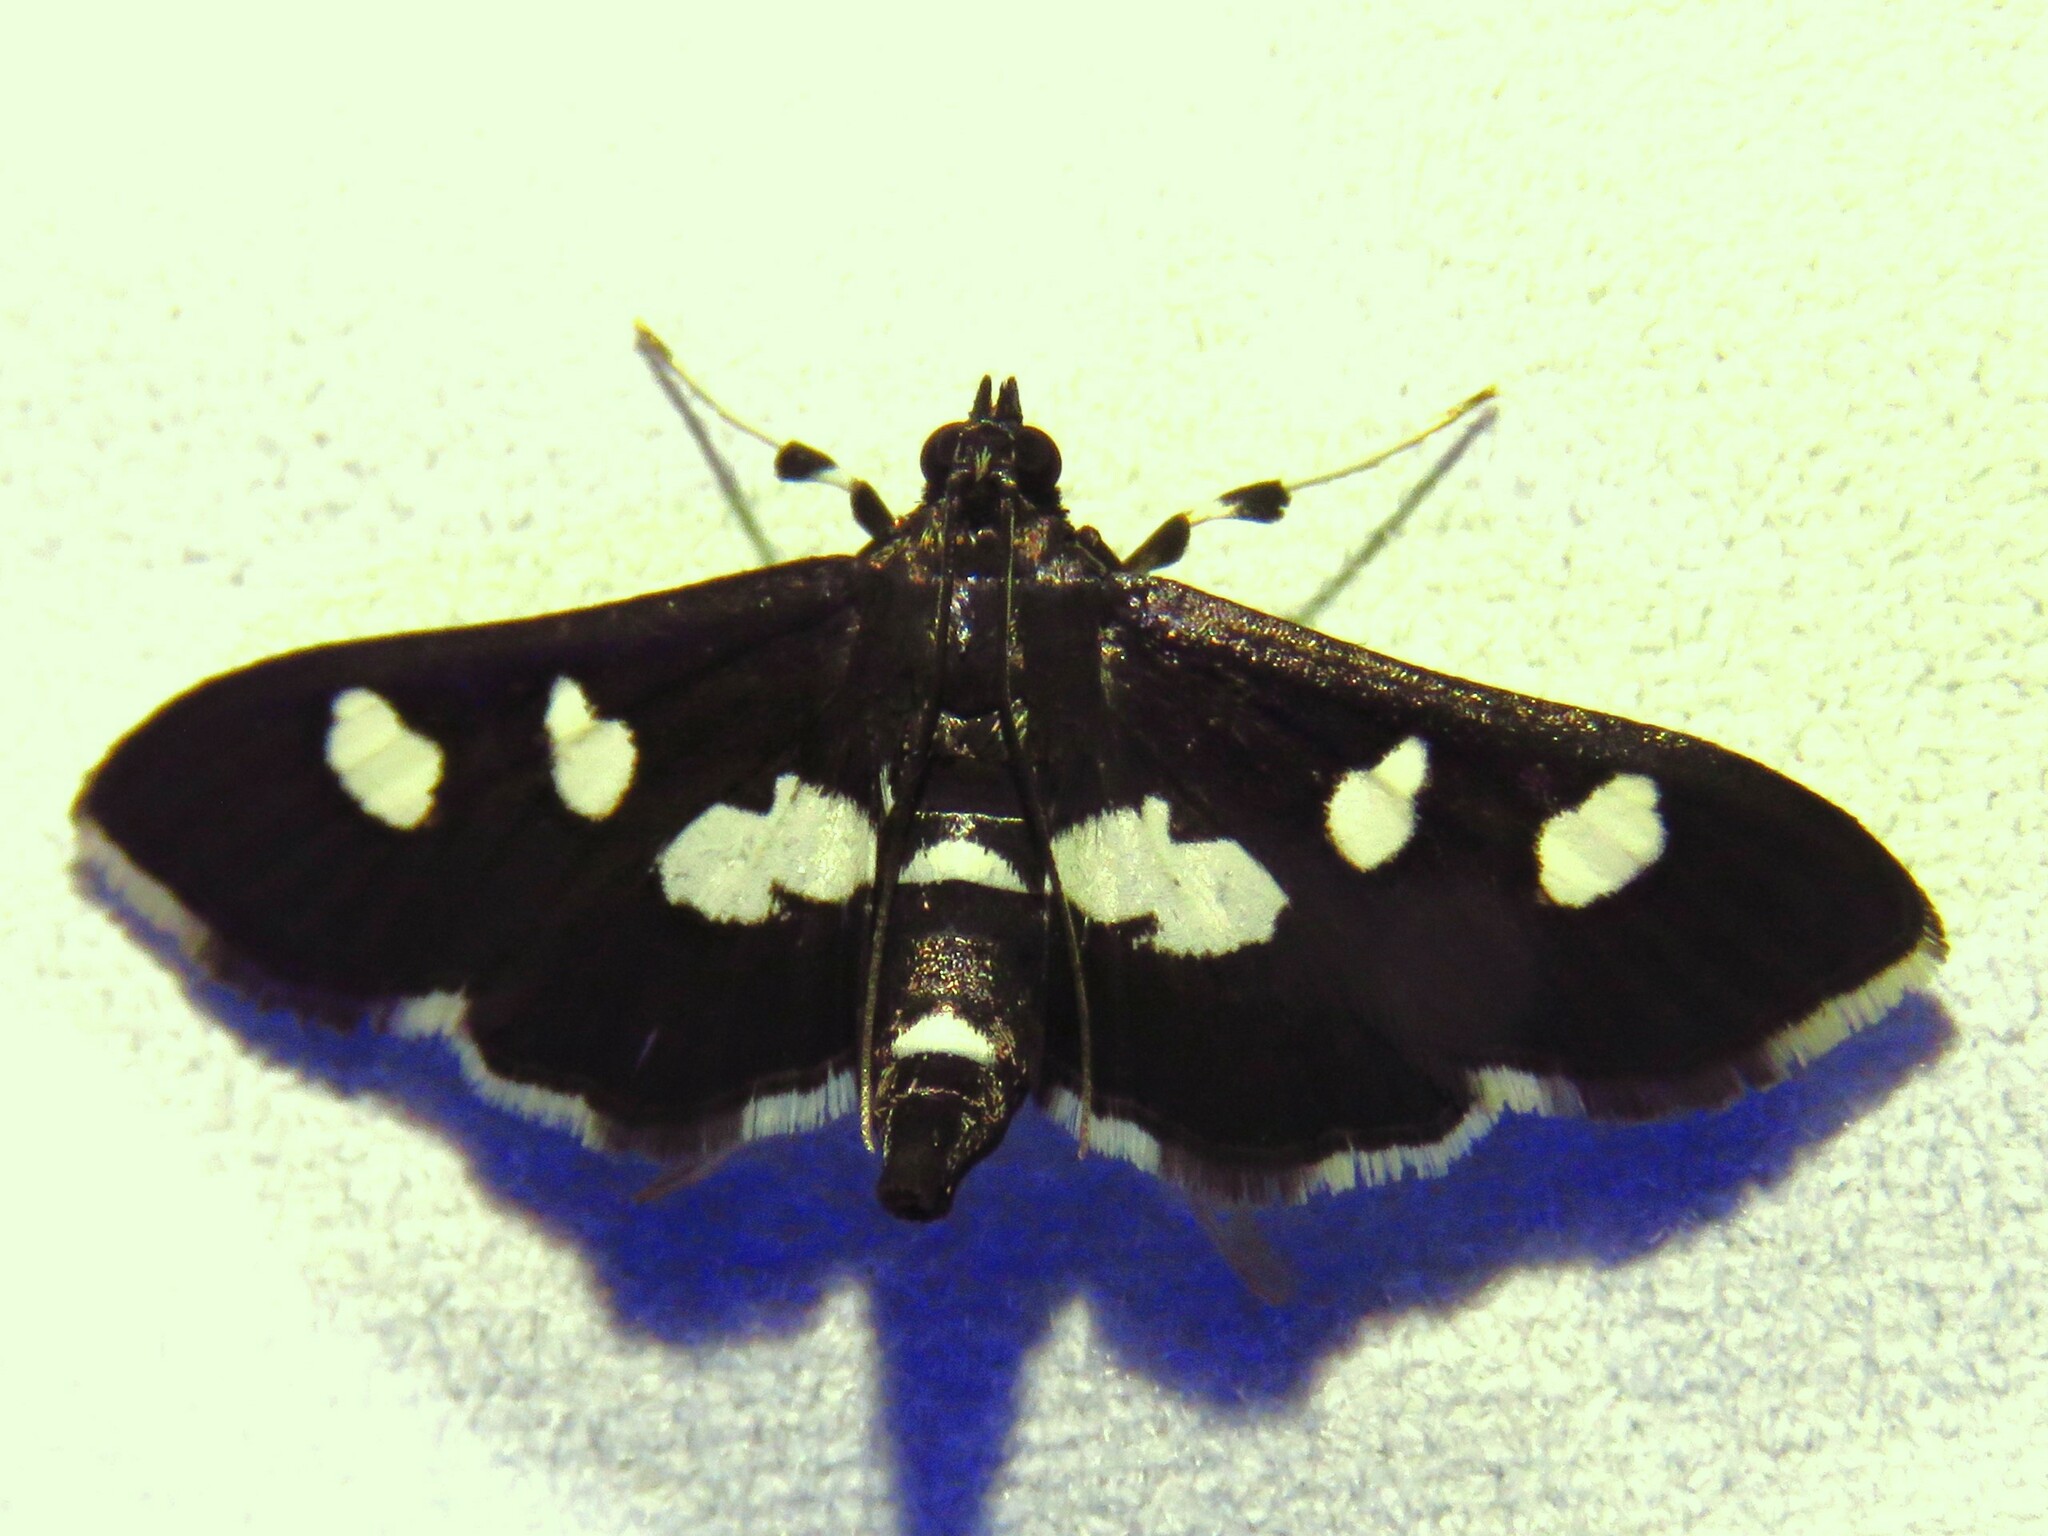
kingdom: Animalia
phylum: Arthropoda
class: Insecta
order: Lepidoptera
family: Crambidae
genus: Desmia
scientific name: Desmia
